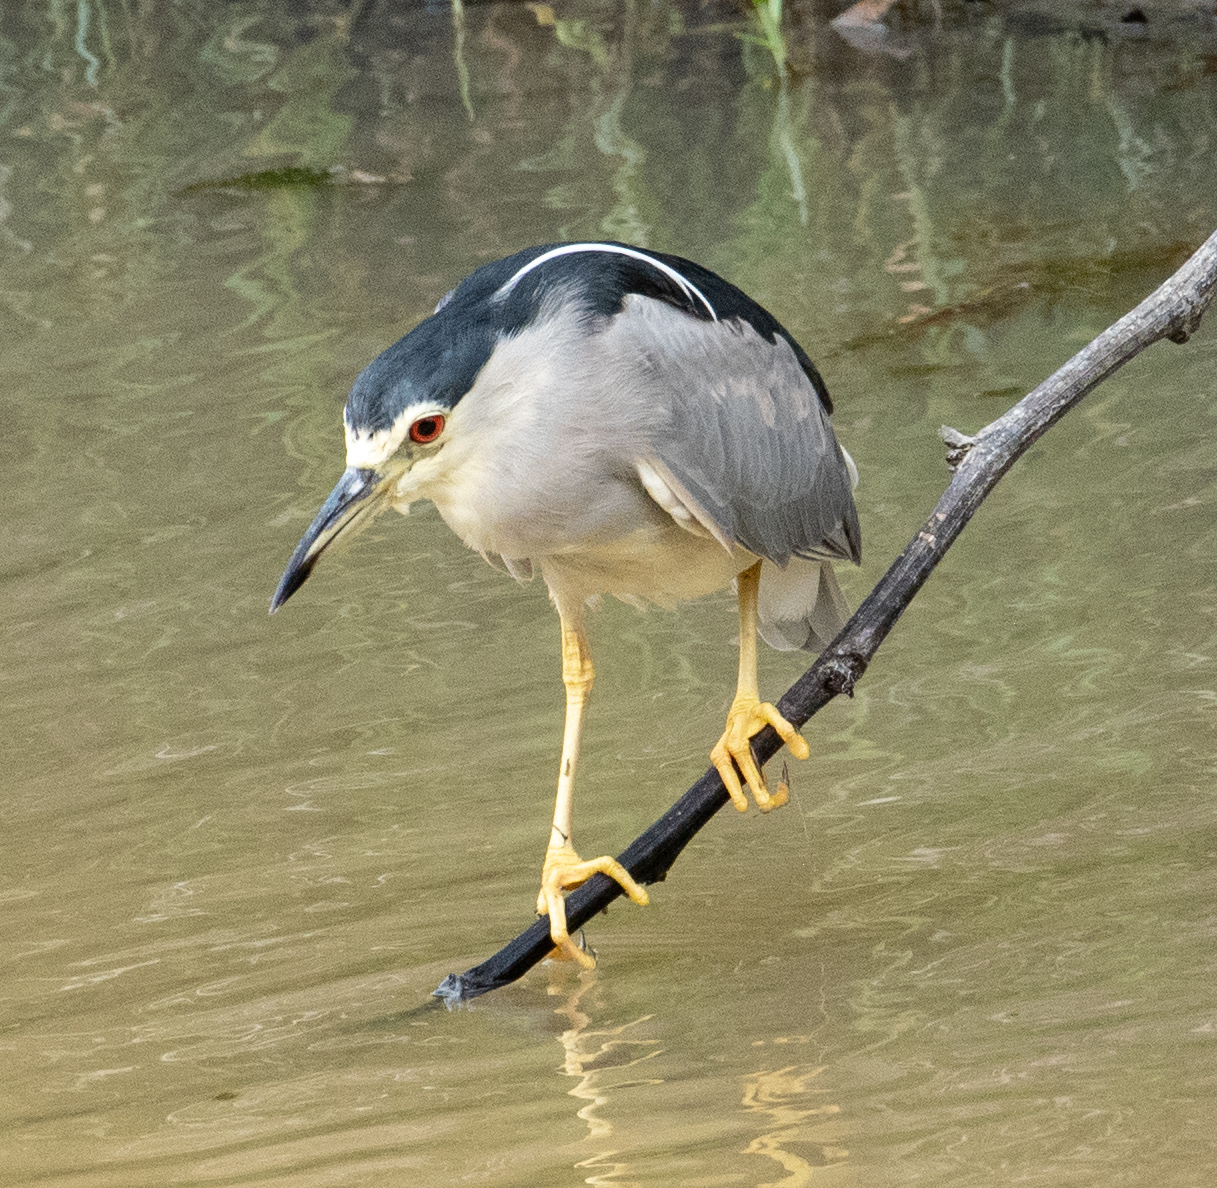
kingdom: Animalia
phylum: Chordata
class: Aves
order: Pelecaniformes
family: Ardeidae
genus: Nycticorax
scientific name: Nycticorax nycticorax
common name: Black-crowned night heron
